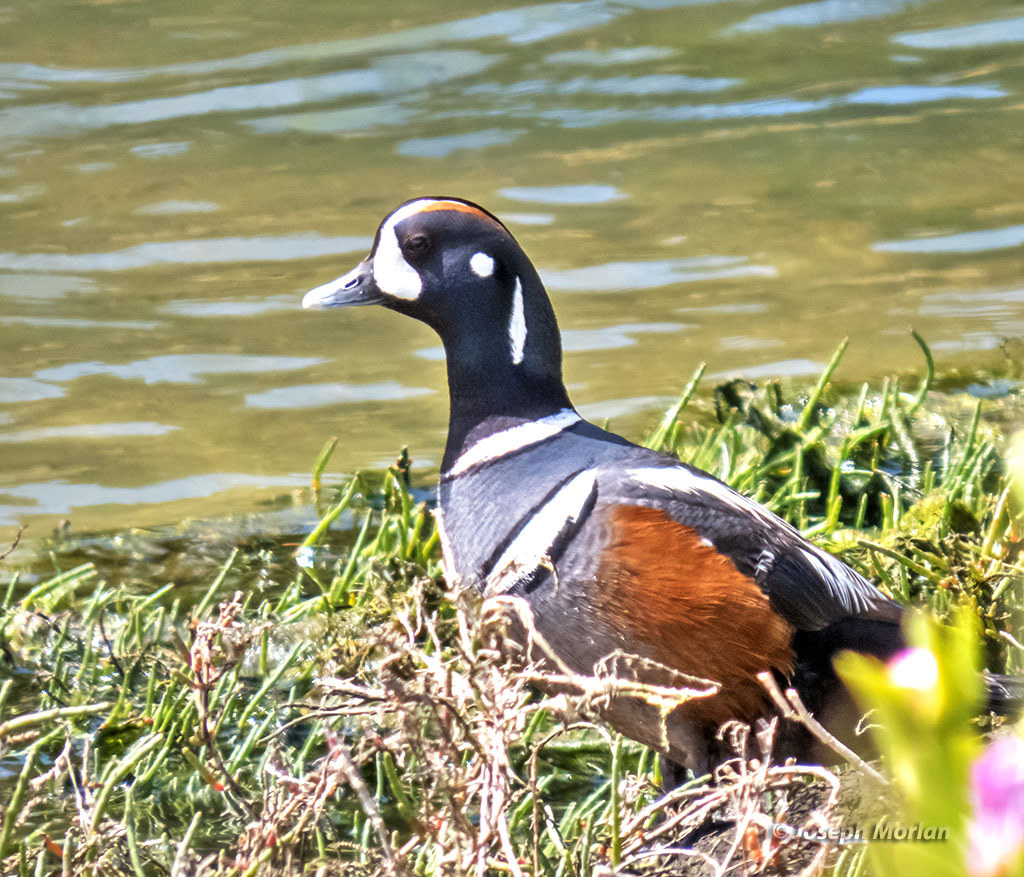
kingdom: Animalia
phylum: Chordata
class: Aves
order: Anseriformes
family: Anatidae
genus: Histrionicus
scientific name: Histrionicus histrionicus
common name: Harlequin duck
